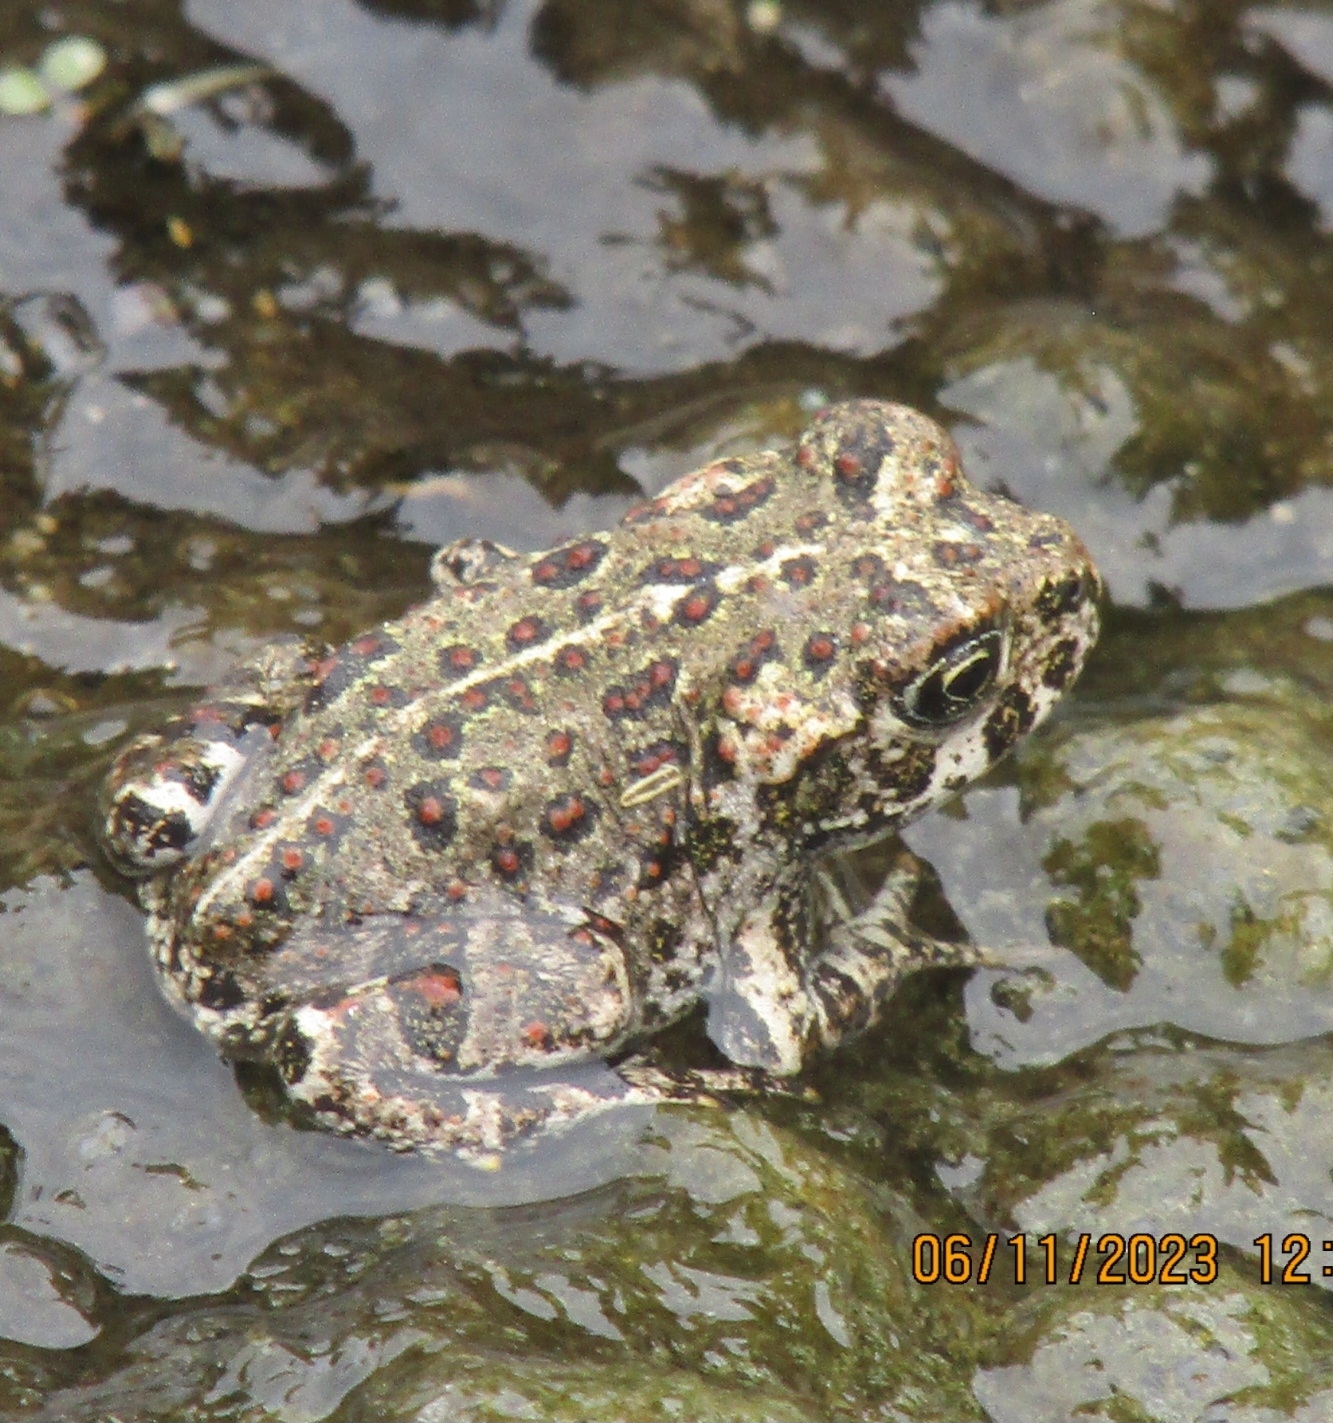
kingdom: Animalia
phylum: Chordata
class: Amphibia
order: Anura
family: Bufonidae
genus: Anaxyrus
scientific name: Anaxyrus boreas
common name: Western toad
